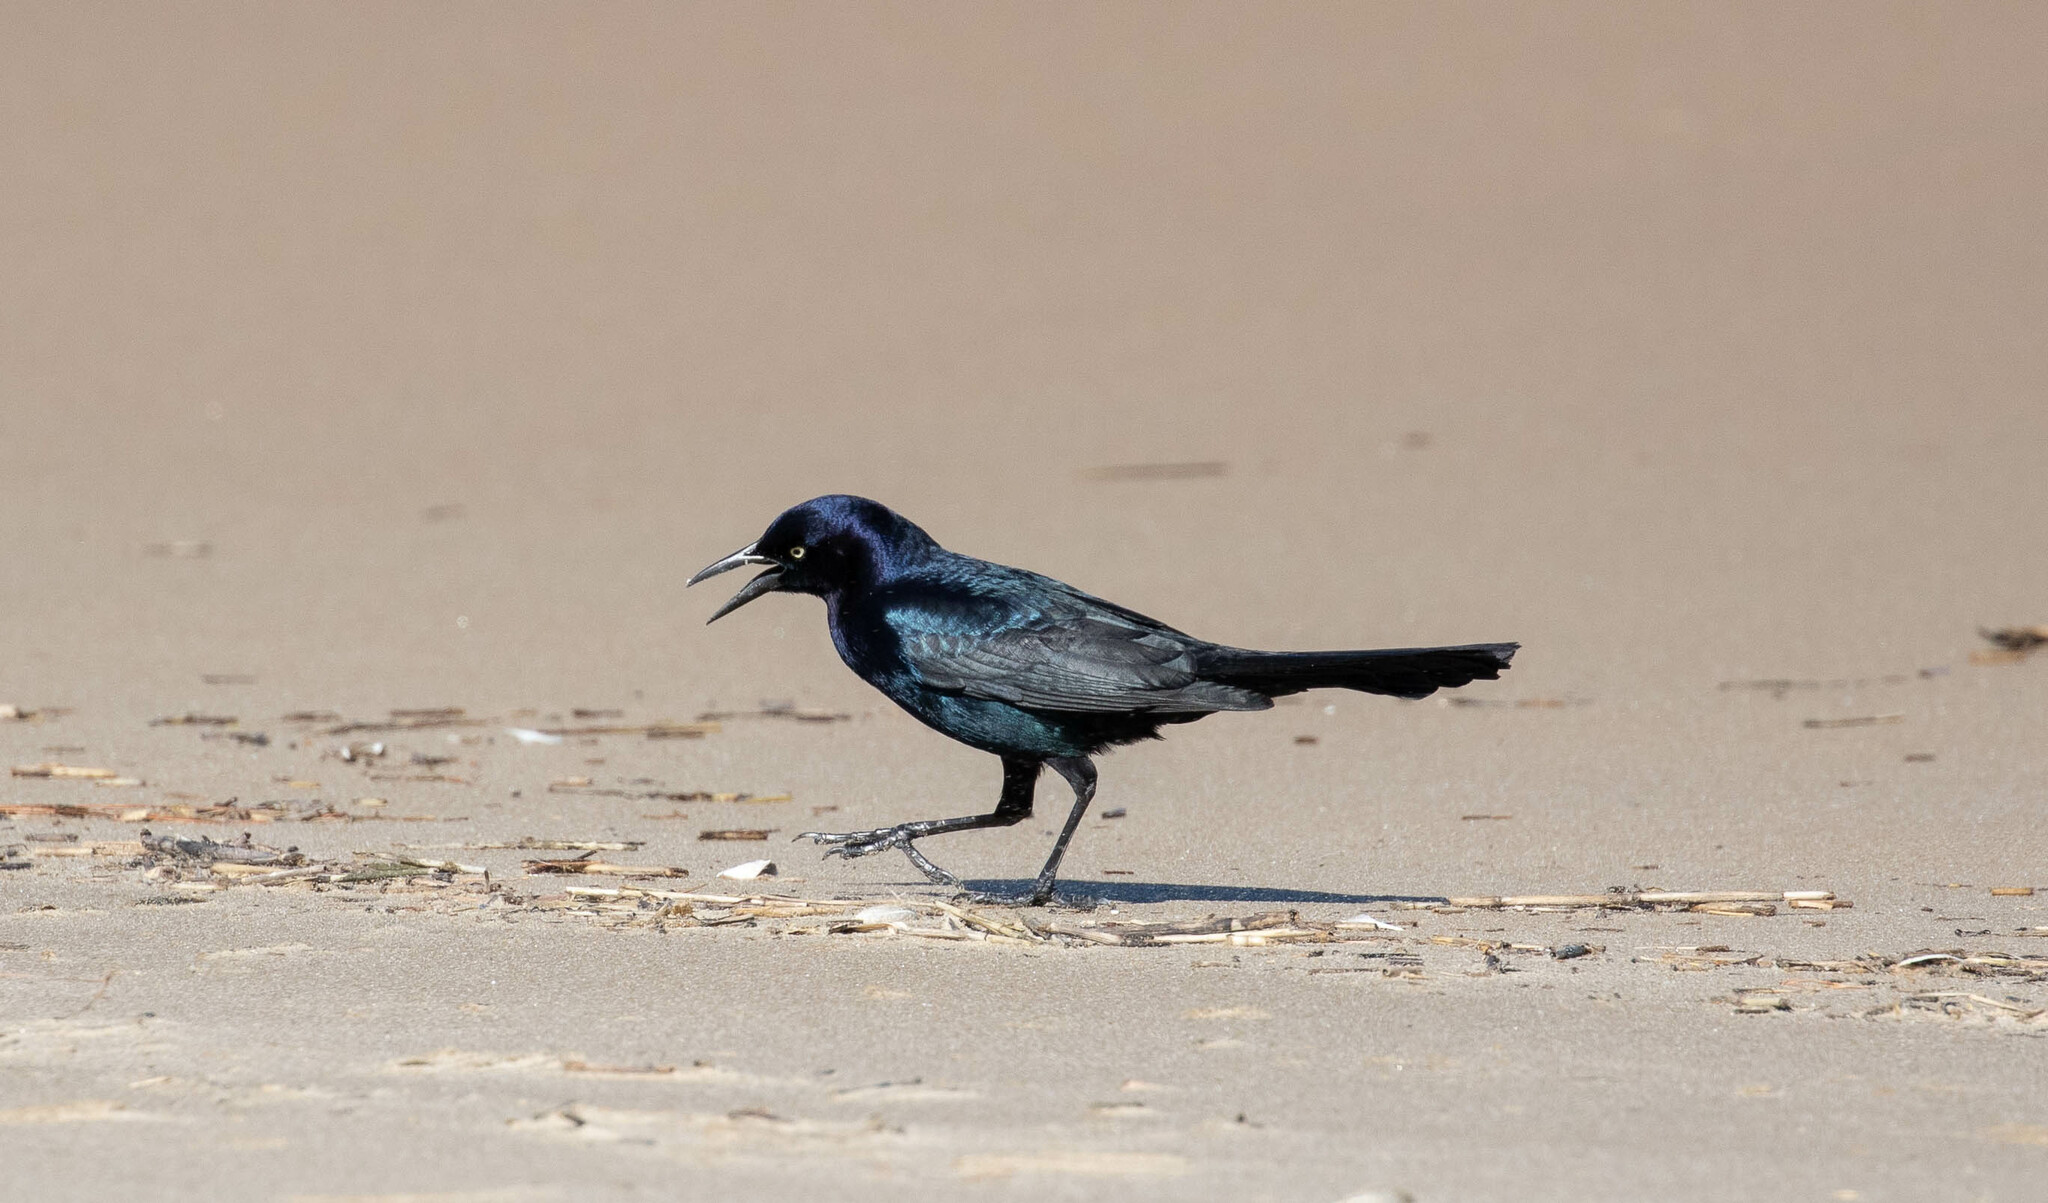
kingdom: Animalia
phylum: Chordata
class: Aves
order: Passeriformes
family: Icteridae
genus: Quiscalus
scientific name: Quiscalus major
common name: Boat-tailed grackle
